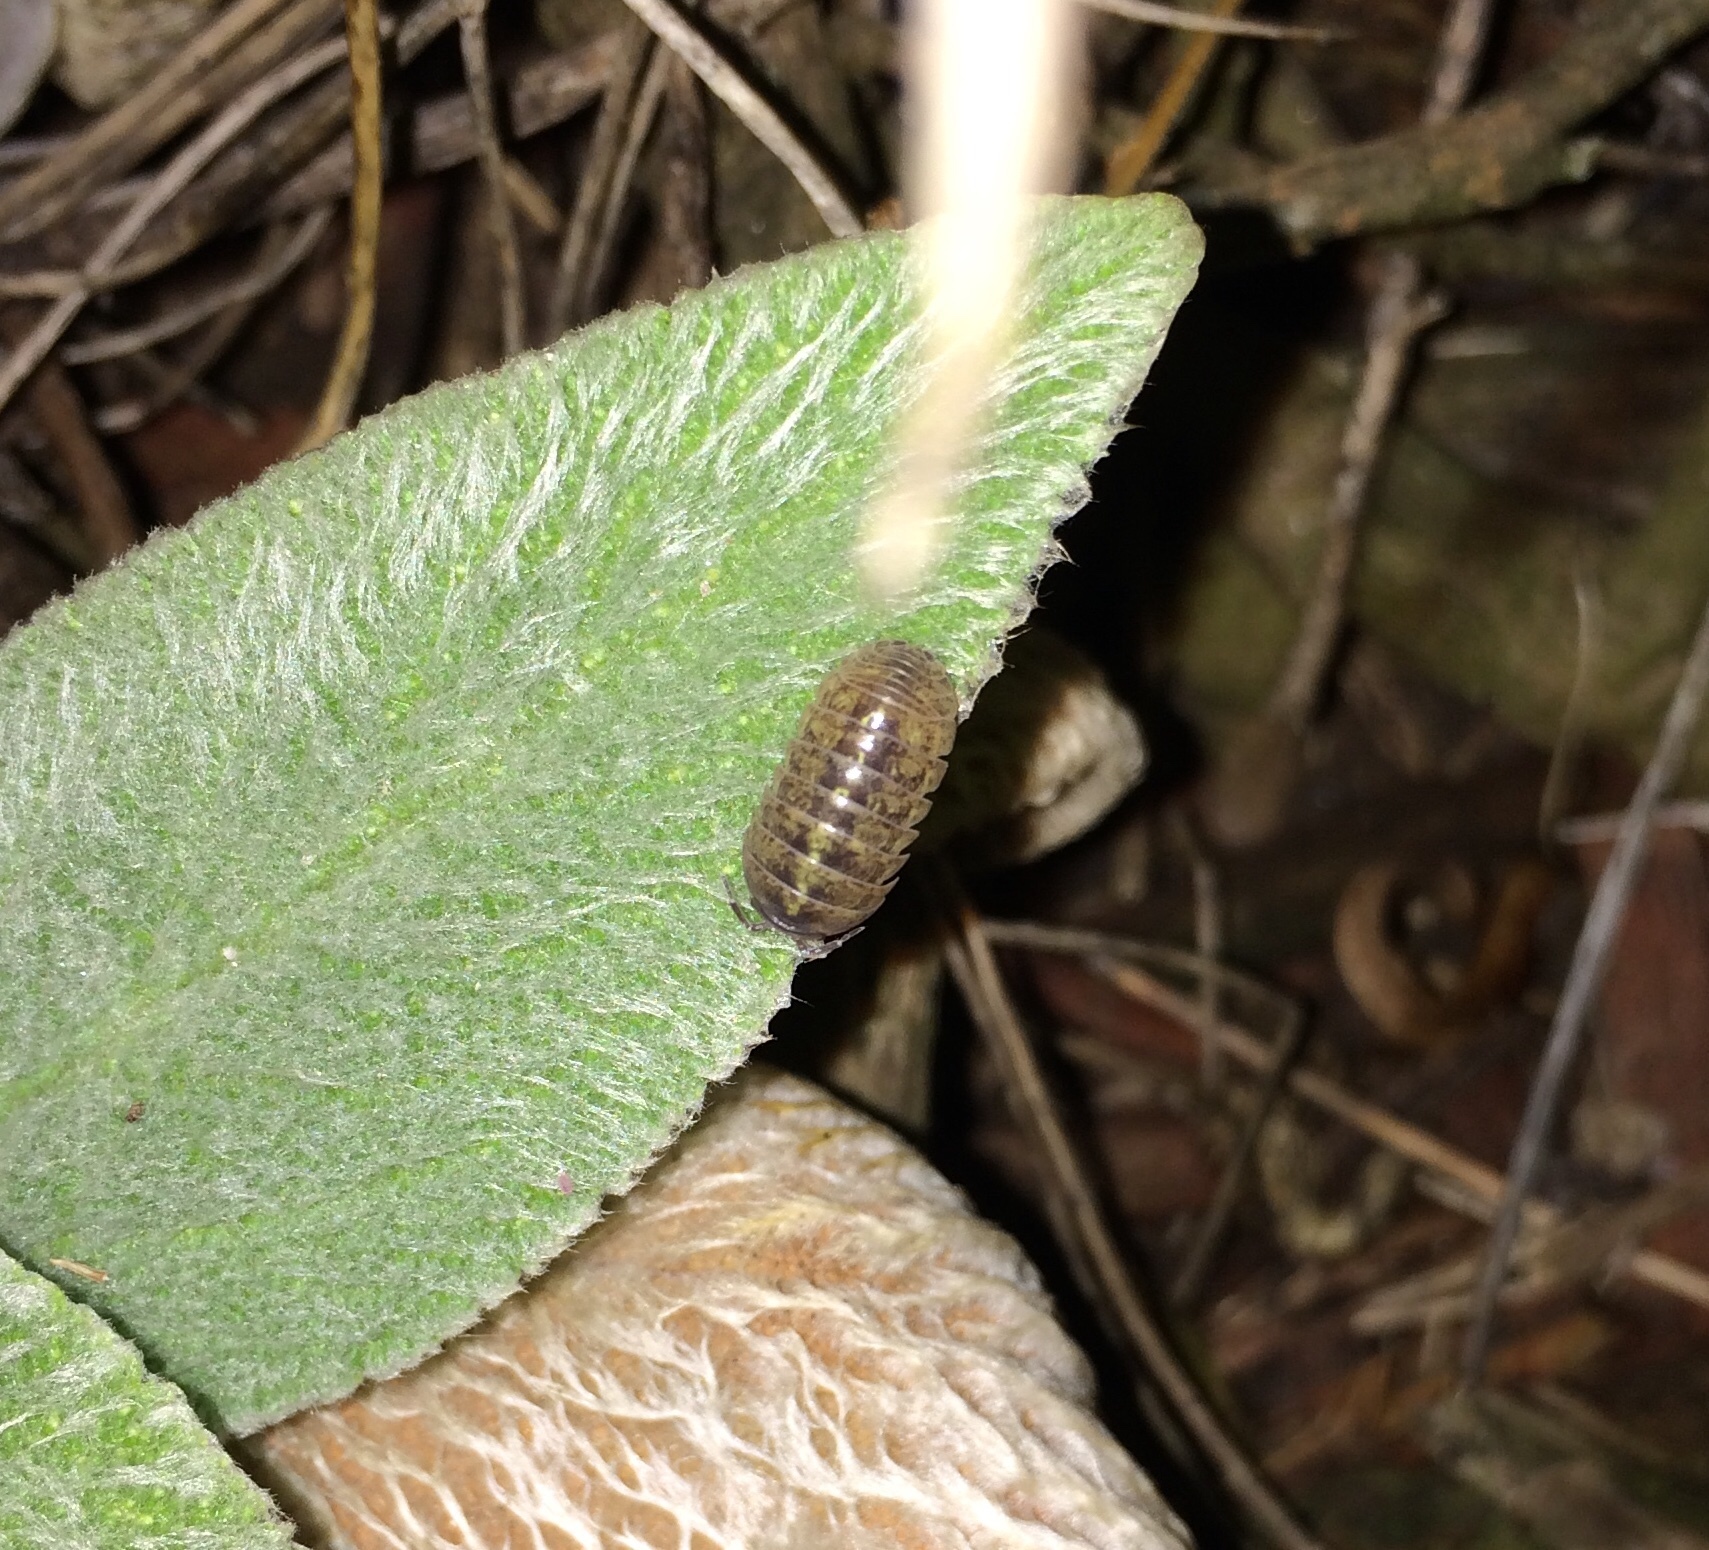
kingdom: Animalia
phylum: Arthropoda
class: Malacostraca
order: Isopoda
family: Armadillidiidae
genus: Armadillidium
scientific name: Armadillidium vulgare
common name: Common pill woodlouse
